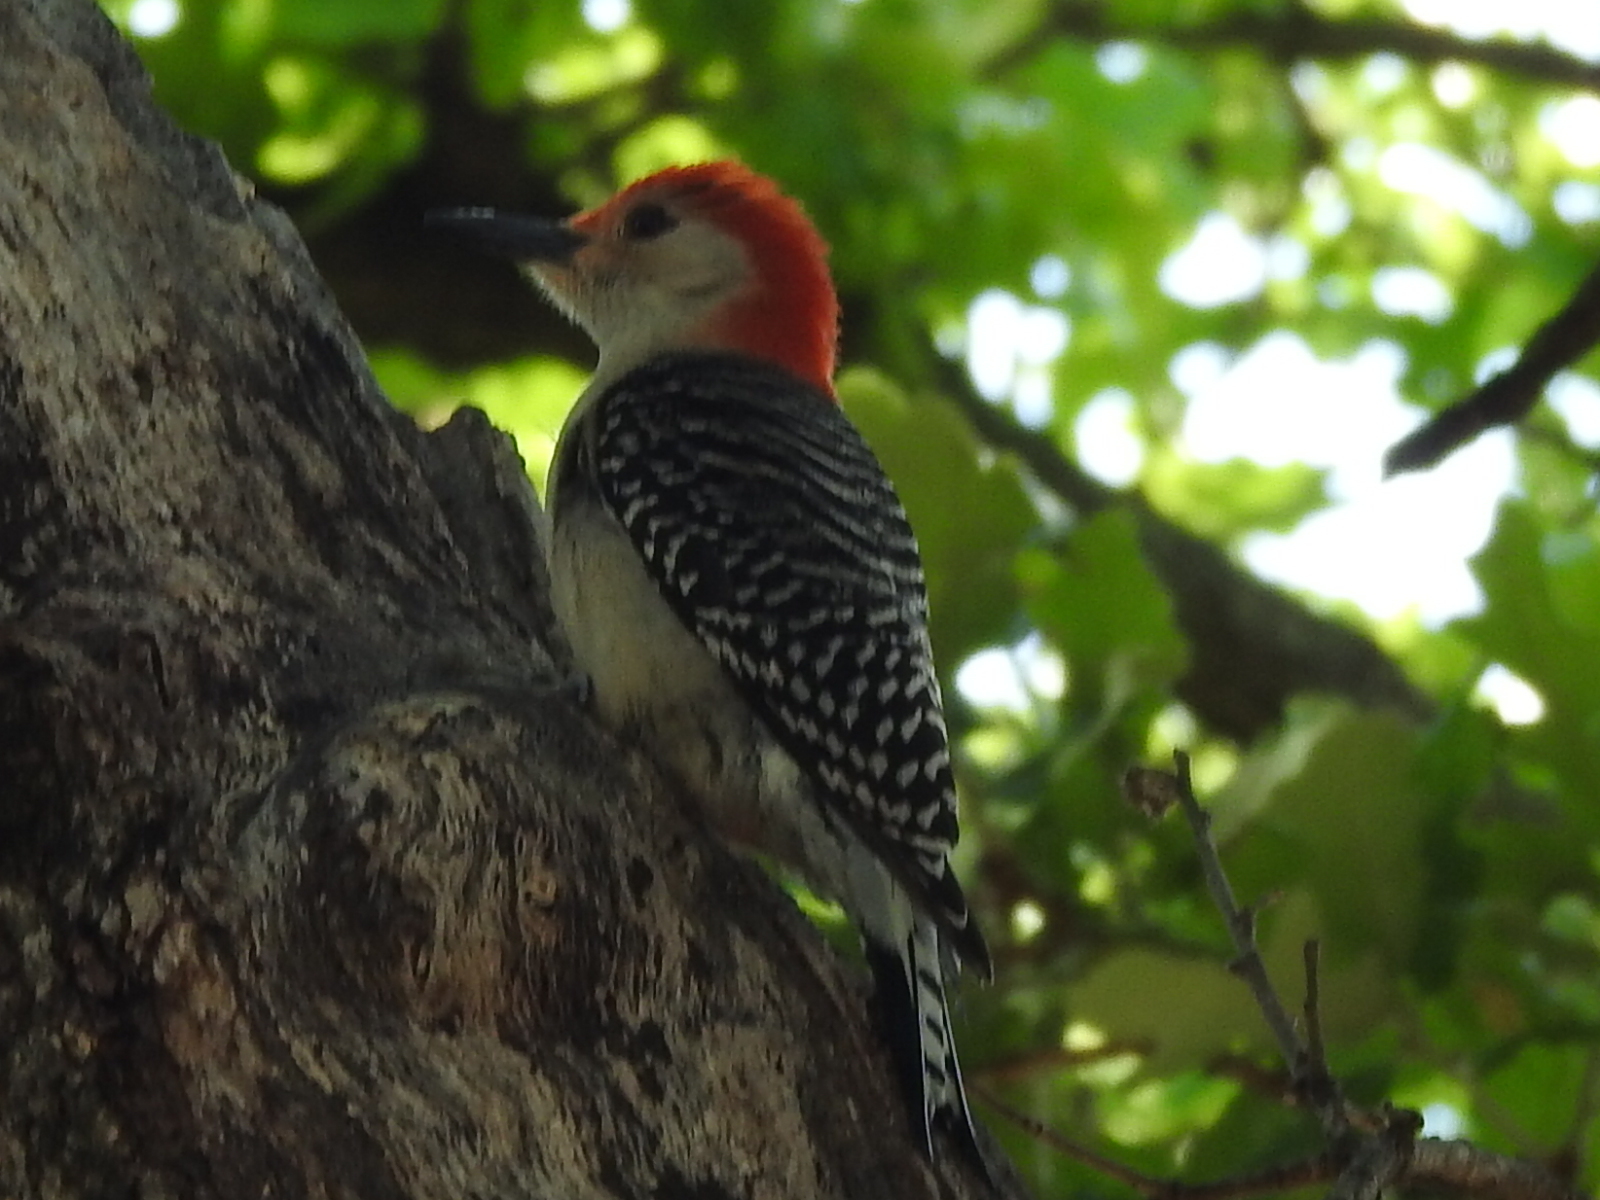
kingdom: Animalia
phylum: Chordata
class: Aves
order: Piciformes
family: Picidae
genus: Melanerpes
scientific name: Melanerpes carolinus
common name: Red-bellied woodpecker
